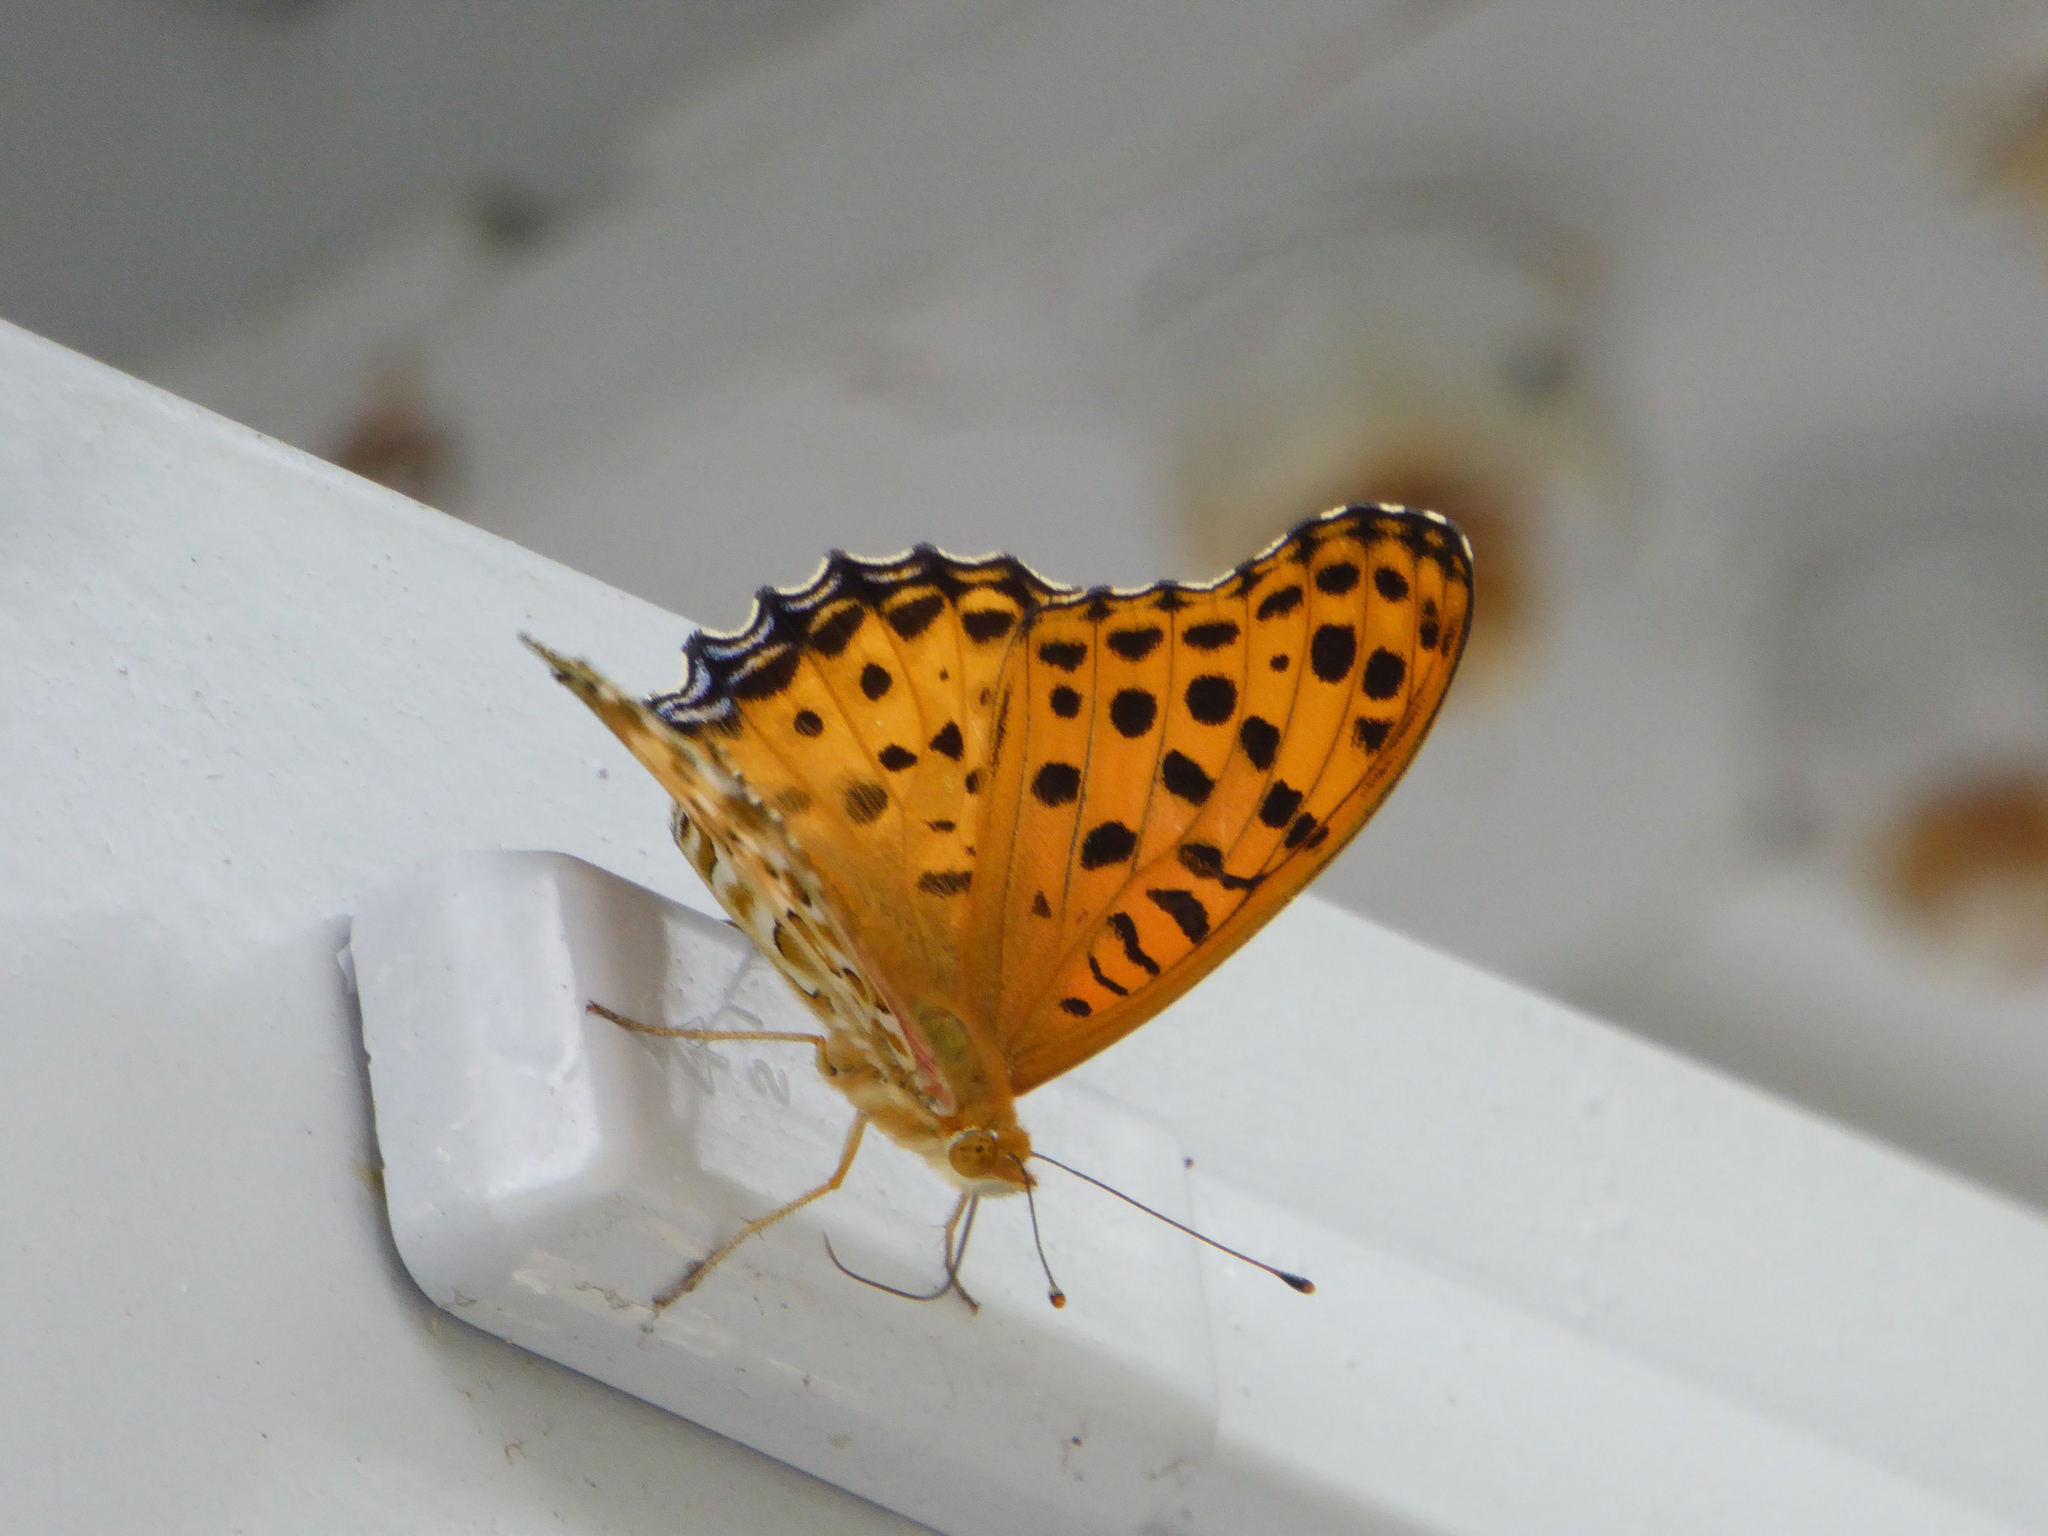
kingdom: Animalia
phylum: Arthropoda
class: Insecta
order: Lepidoptera
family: Nymphalidae
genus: Argynnis
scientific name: Argynnis hyperbius
